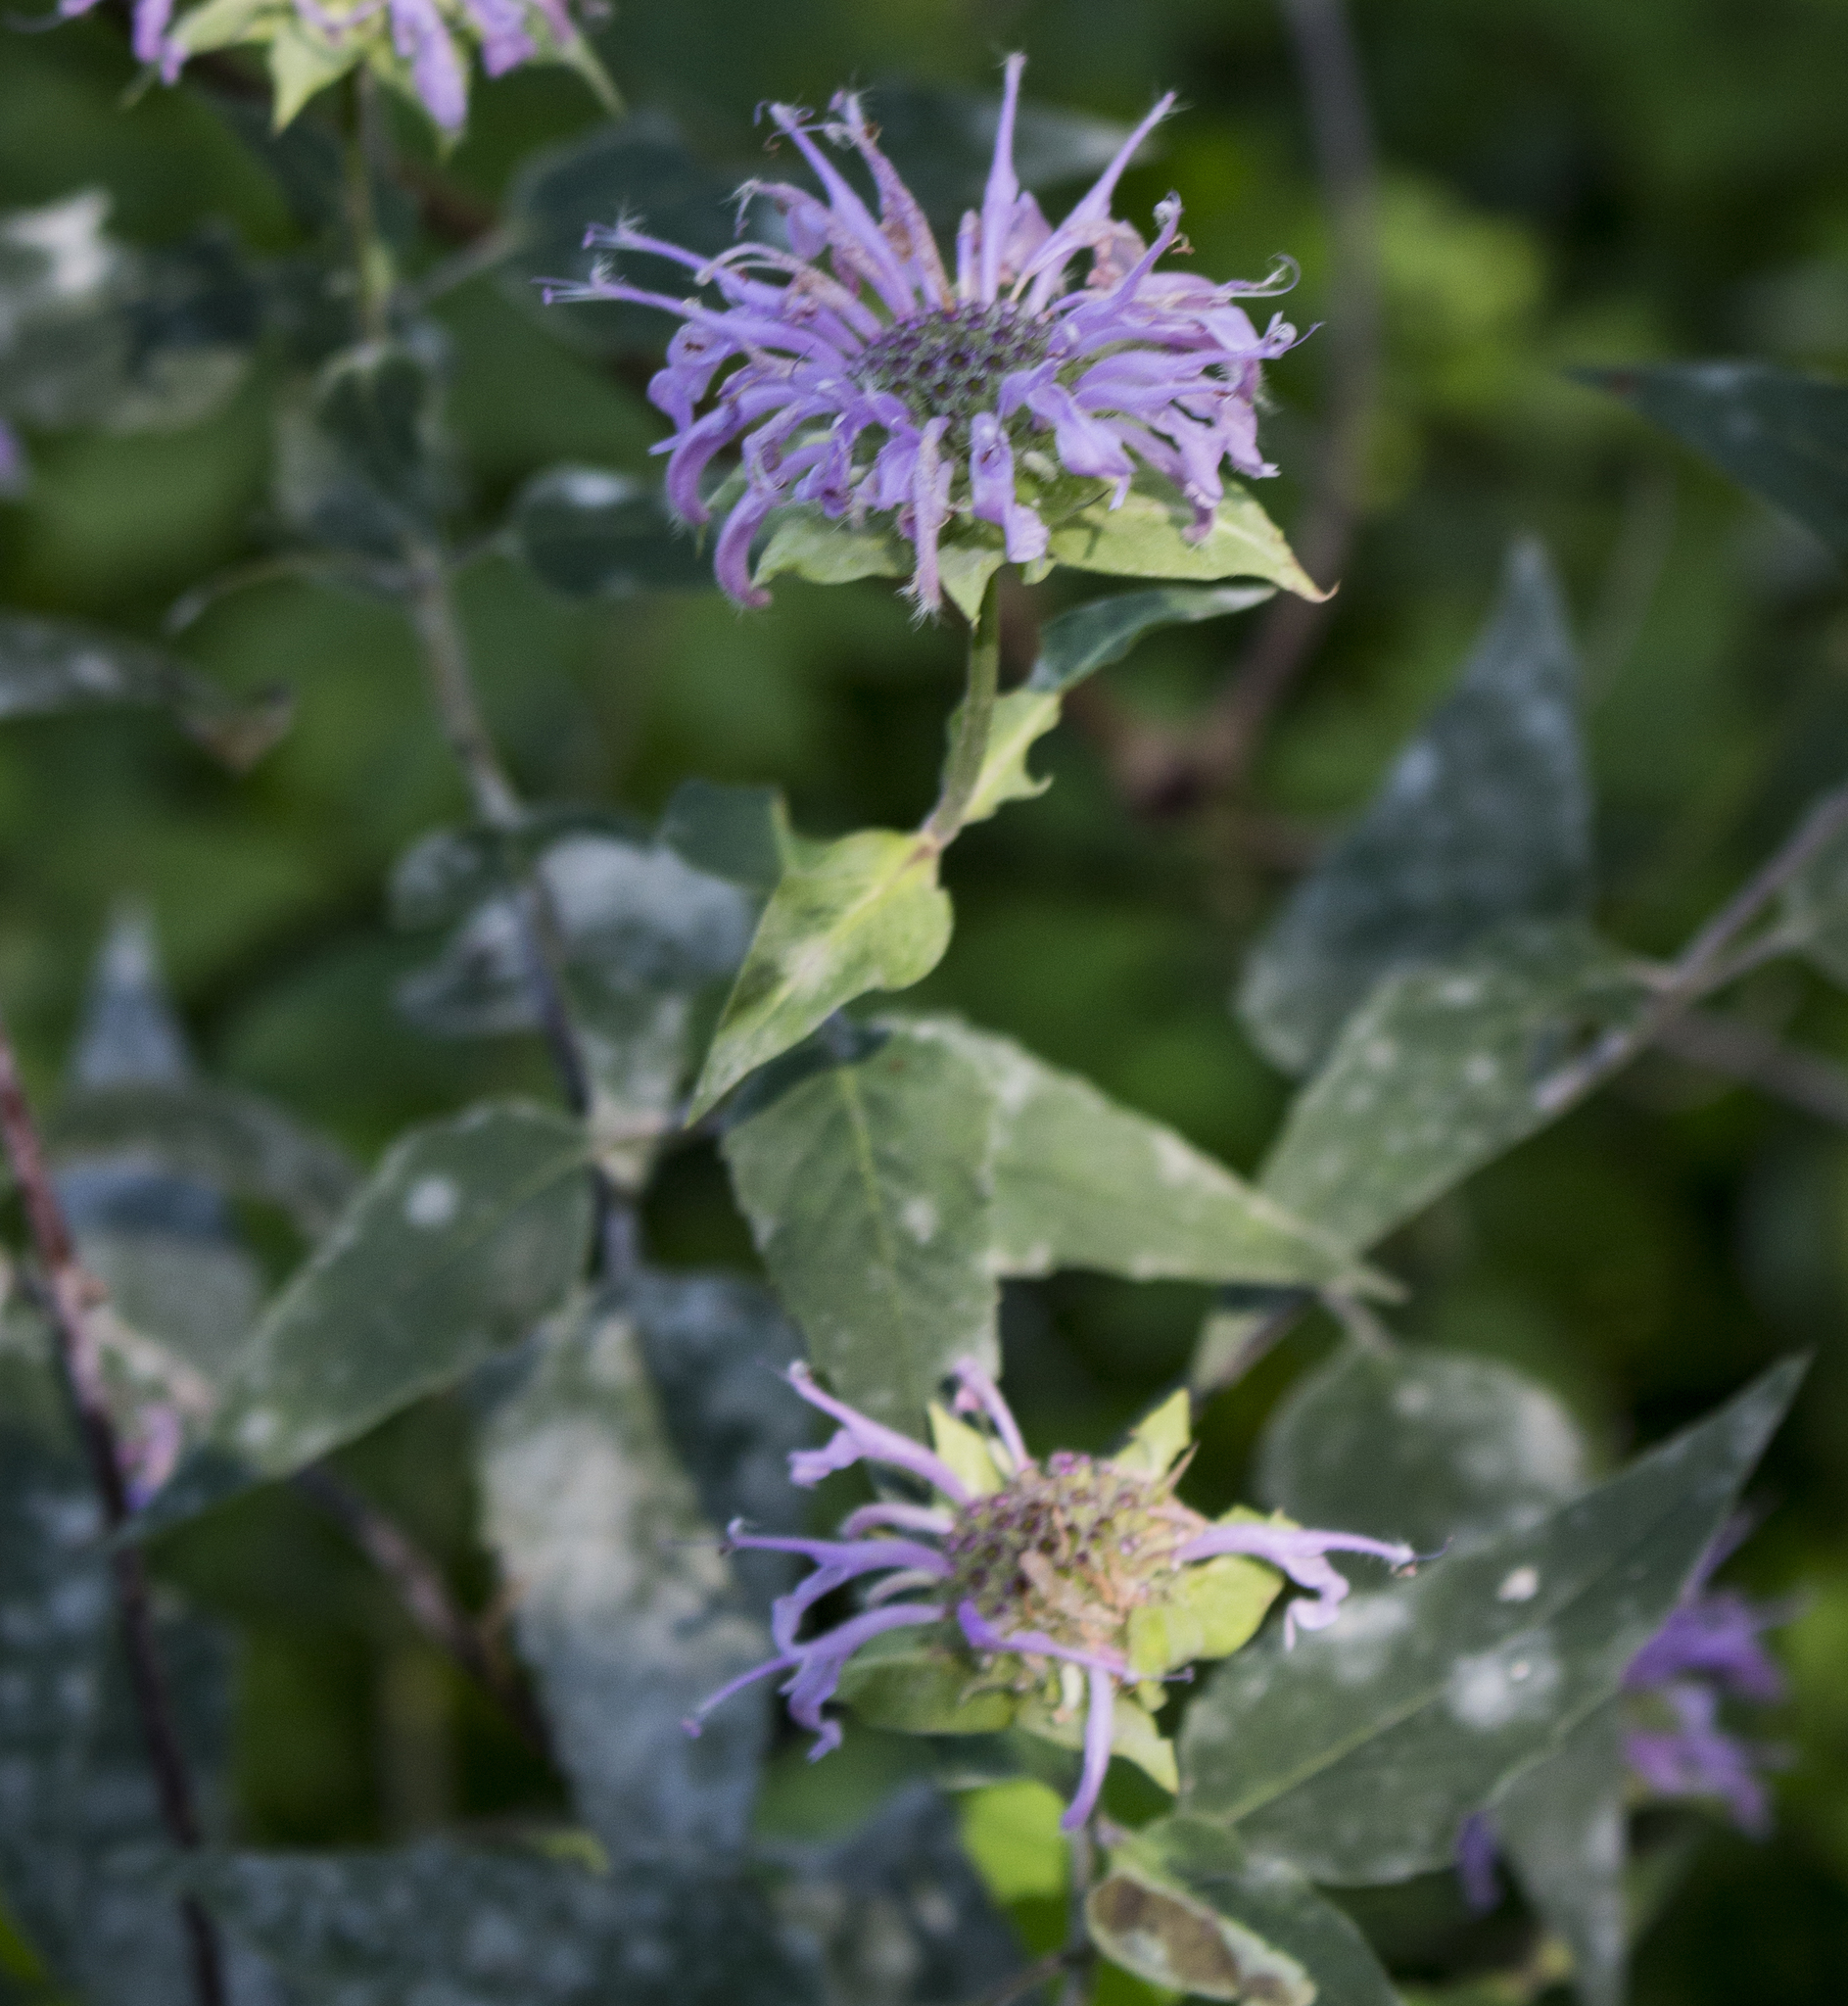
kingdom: Plantae
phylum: Tracheophyta
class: Magnoliopsida
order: Lamiales
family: Lamiaceae
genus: Monarda
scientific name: Monarda fistulosa
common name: Purple beebalm
